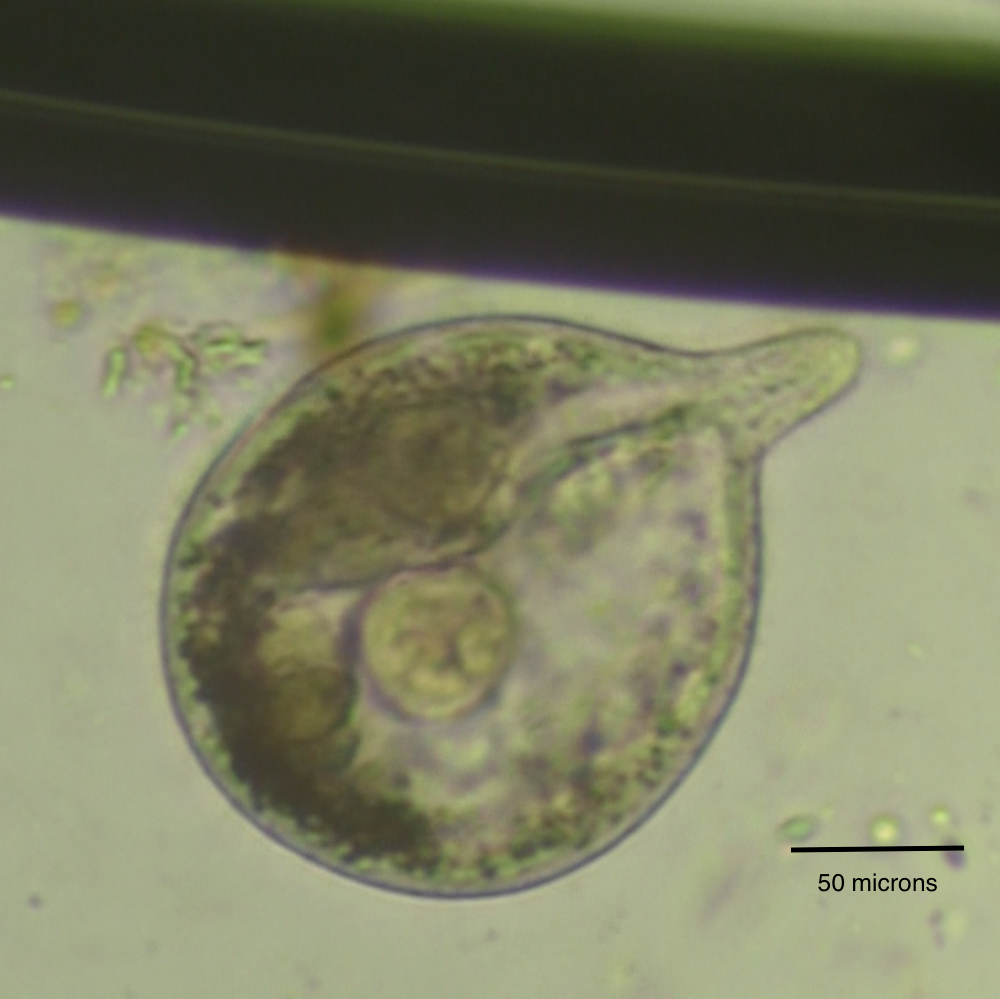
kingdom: Chromista
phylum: Ciliophora
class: Litostomatea
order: Dileptida
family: Dileptidae
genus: Trachelius
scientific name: Trachelius ovum
